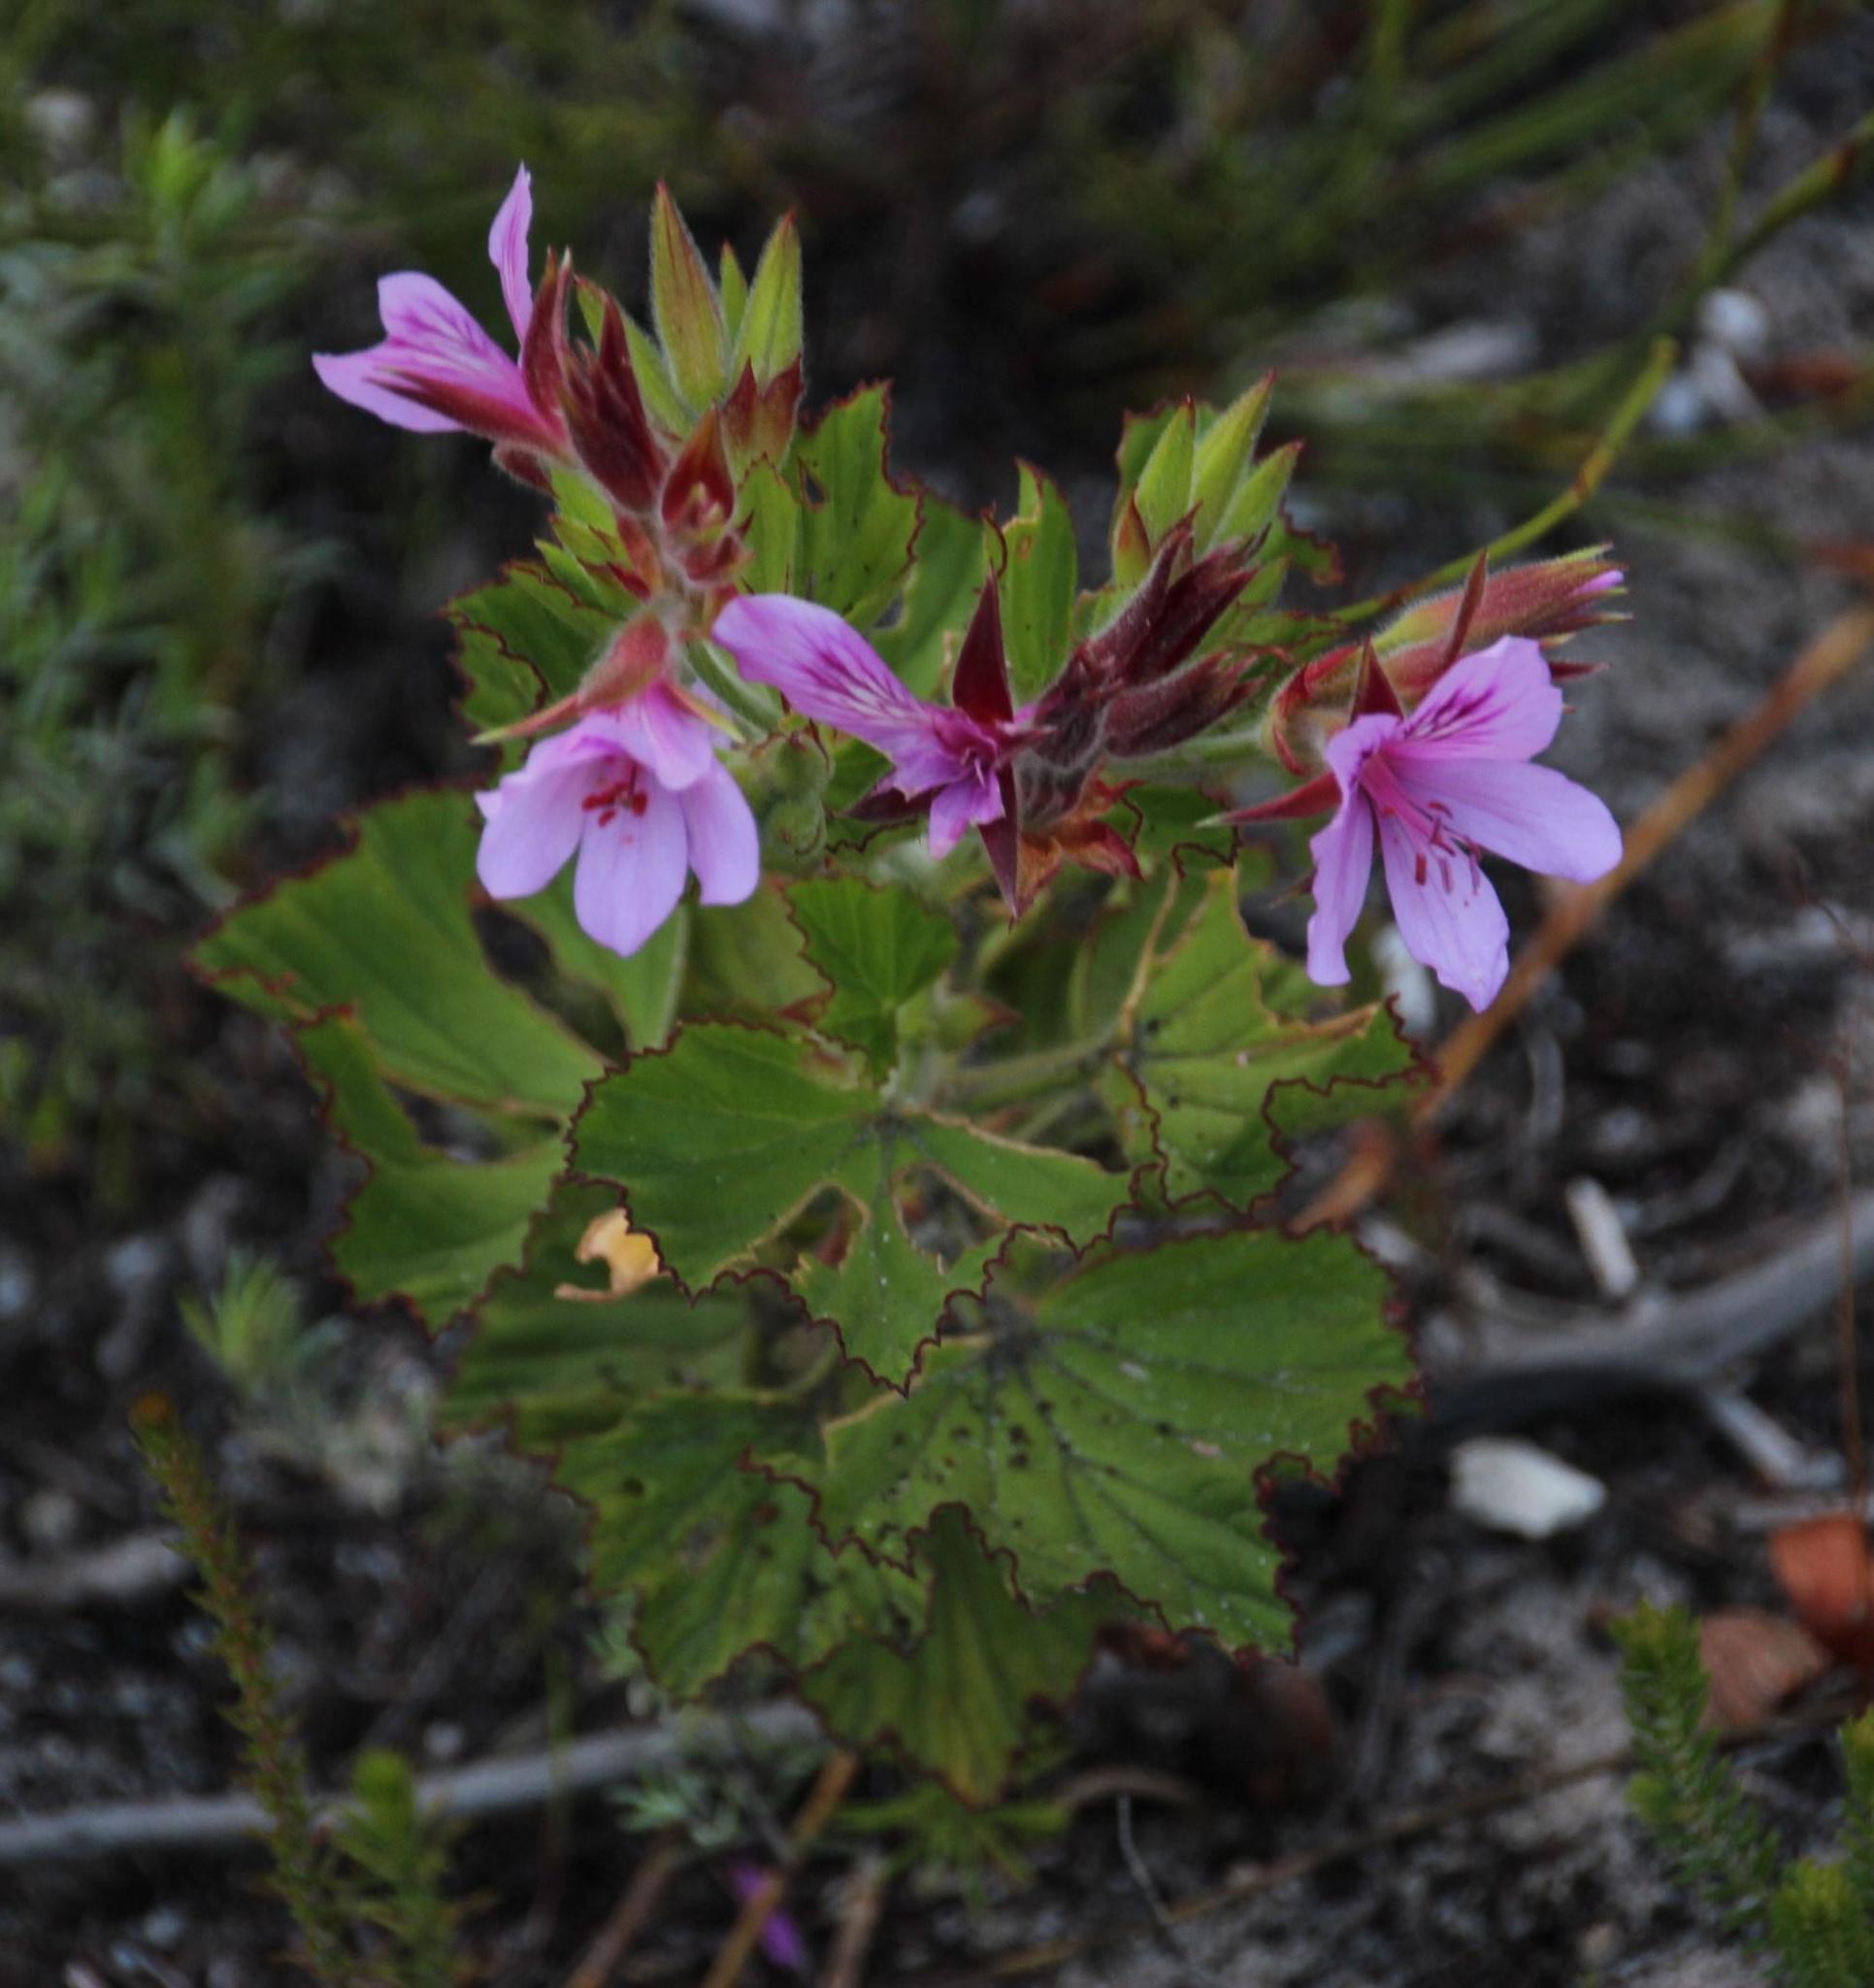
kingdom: Plantae
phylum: Tracheophyta
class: Magnoliopsida
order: Geraniales
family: Geraniaceae
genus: Pelargonium
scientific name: Pelargonium cucullatum
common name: Tree pelargonium
